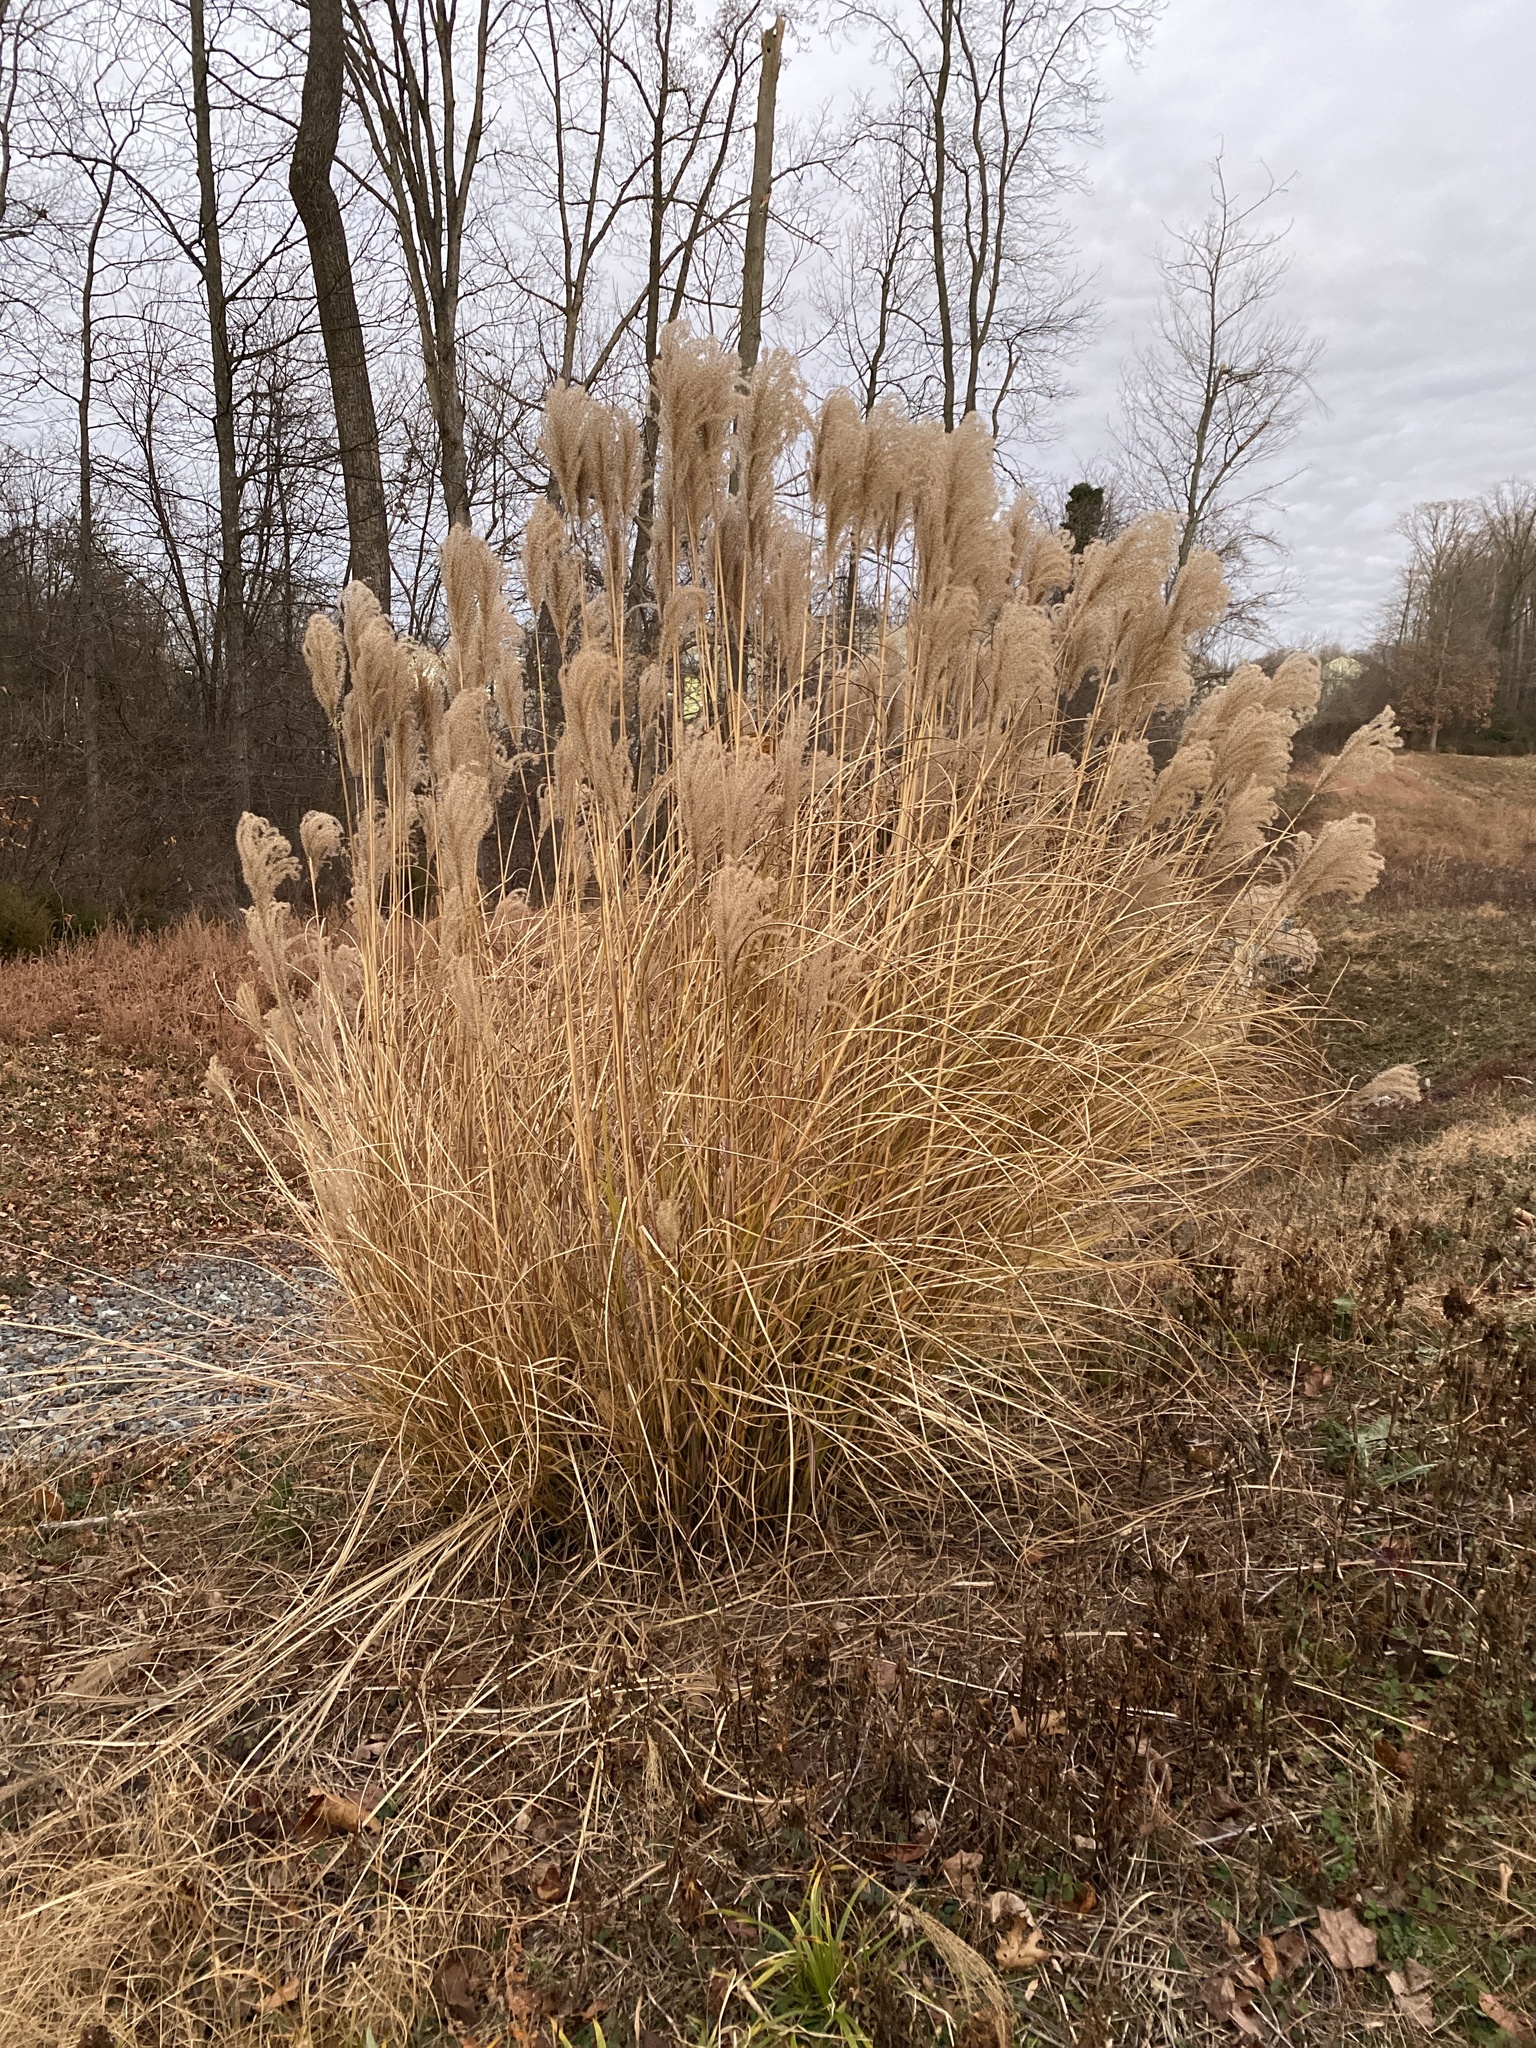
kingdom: Plantae
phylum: Tracheophyta
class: Liliopsida
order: Poales
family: Poaceae
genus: Miscanthus
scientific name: Miscanthus sinensis
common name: Chinese silvergrass
